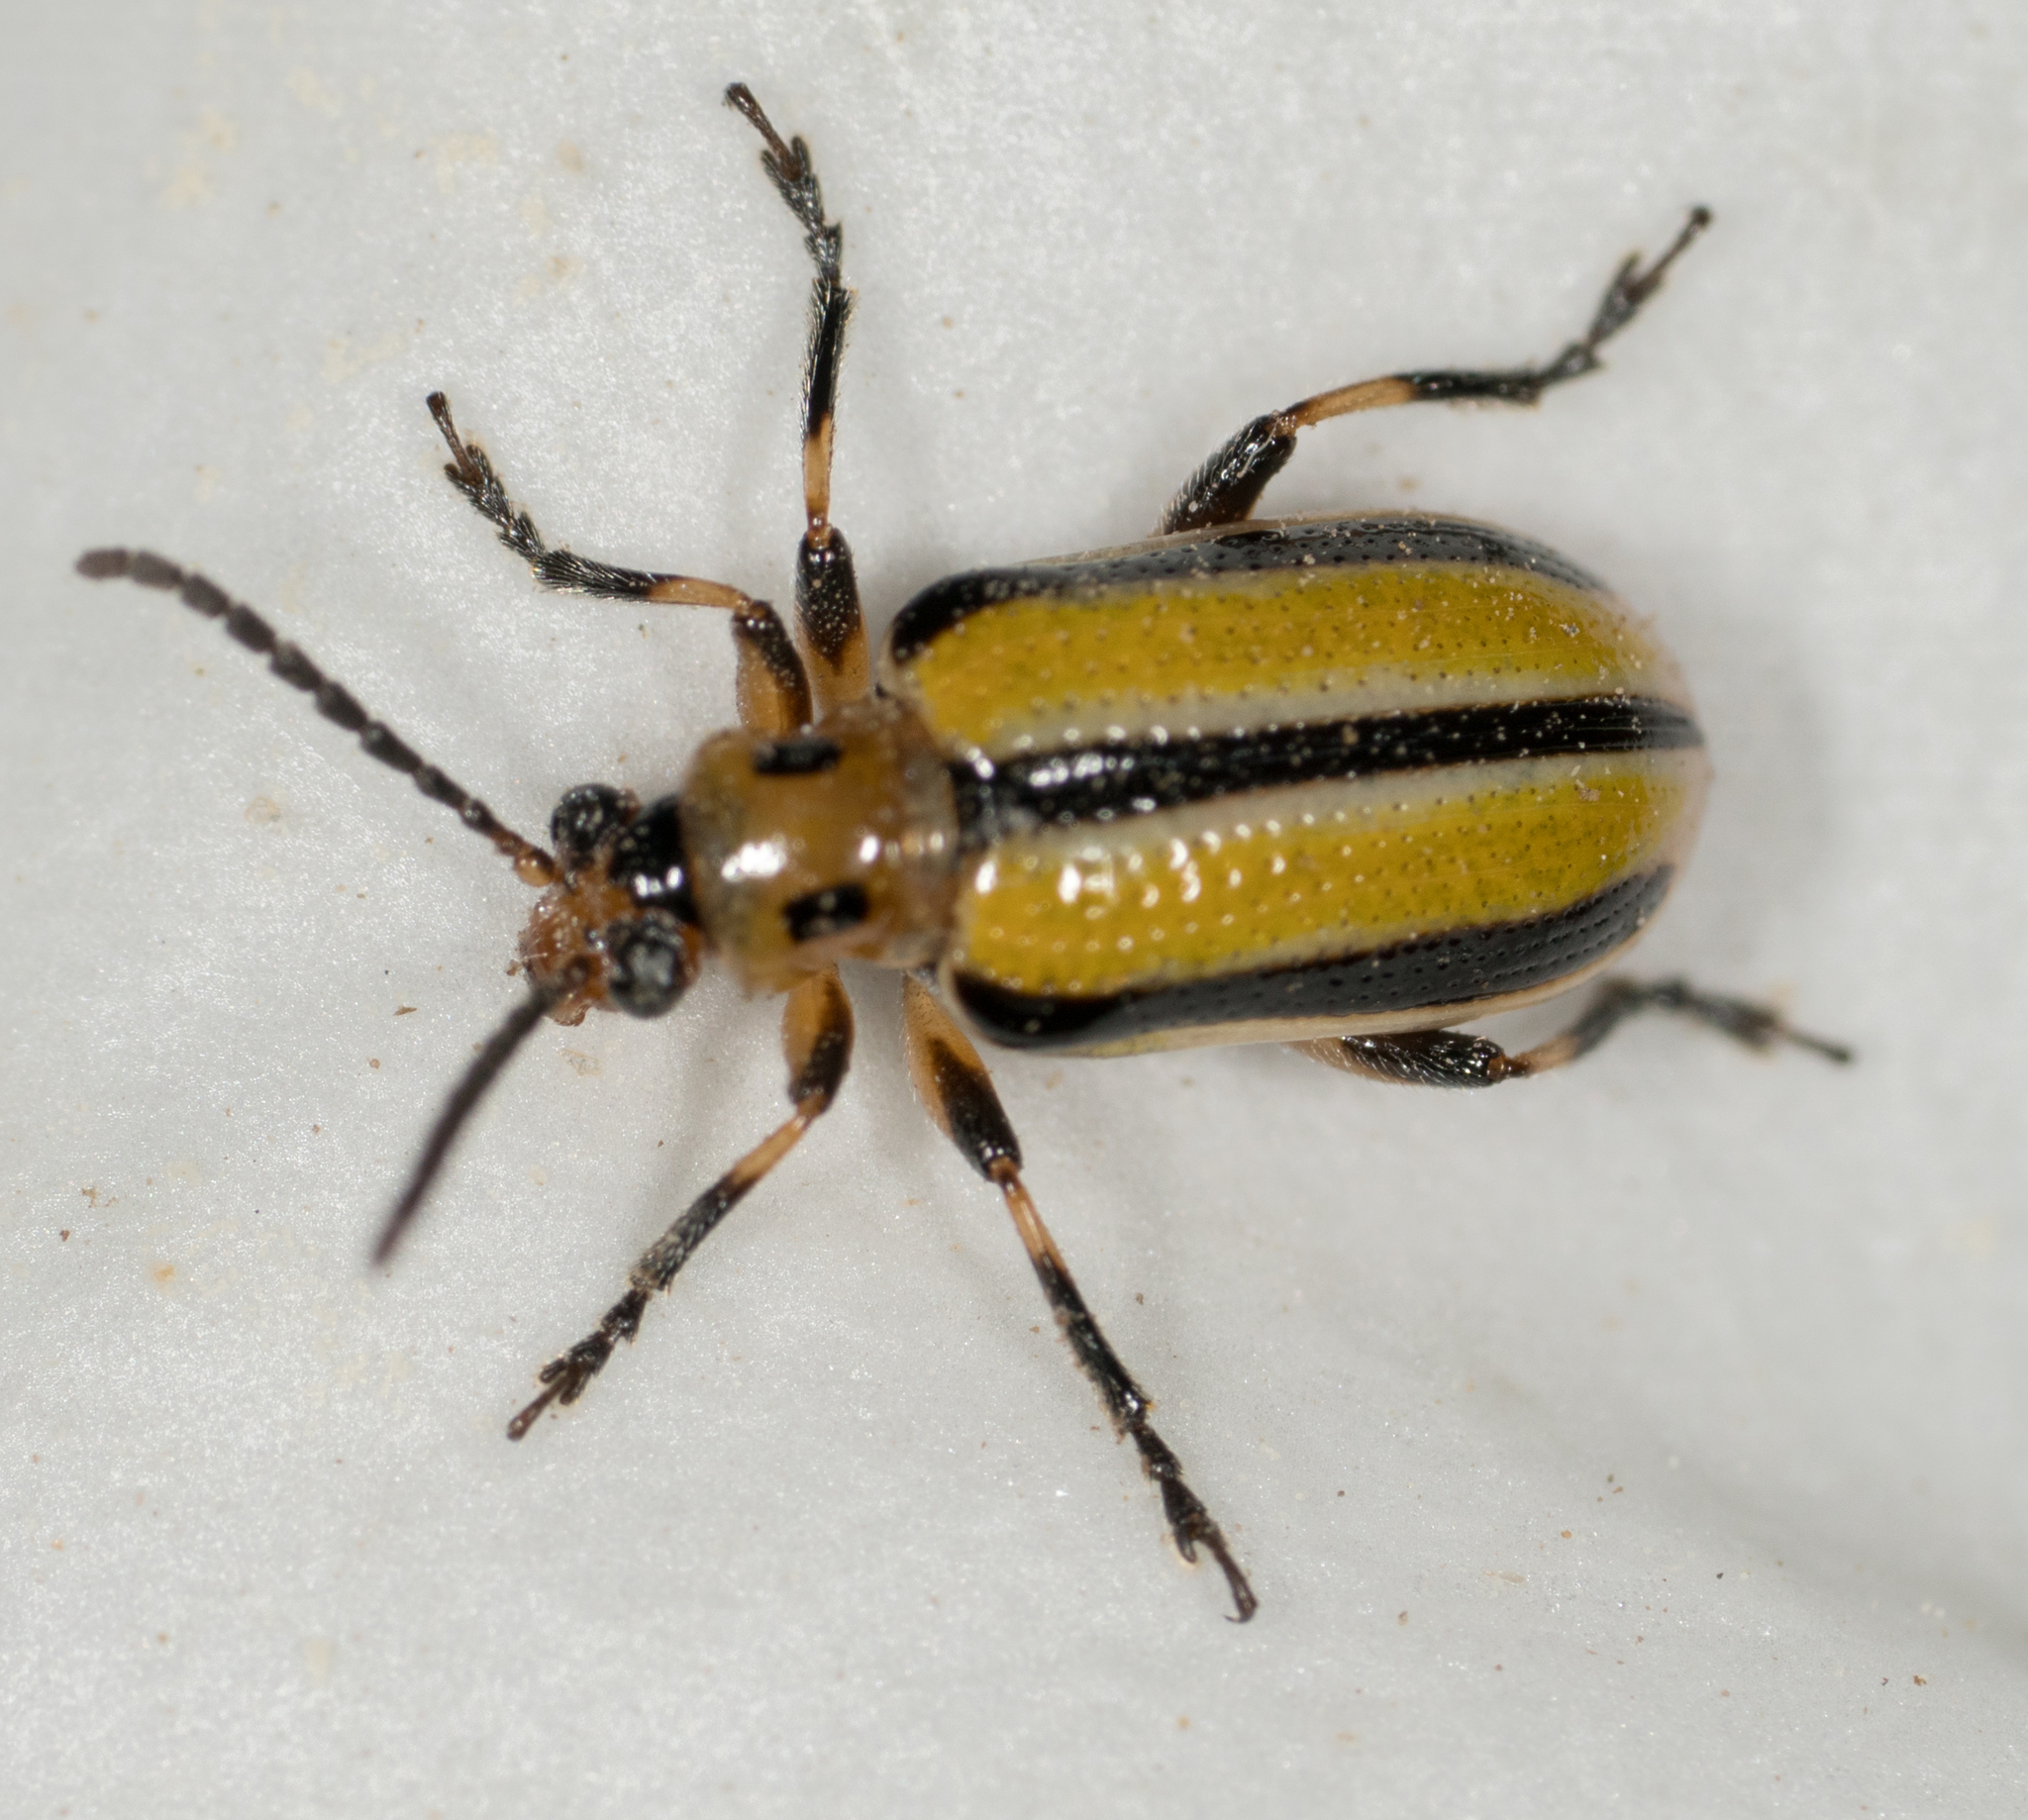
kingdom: Animalia
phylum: Arthropoda
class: Insecta
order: Coleoptera
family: Chrysomelidae
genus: Lema
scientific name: Lema trivittata
